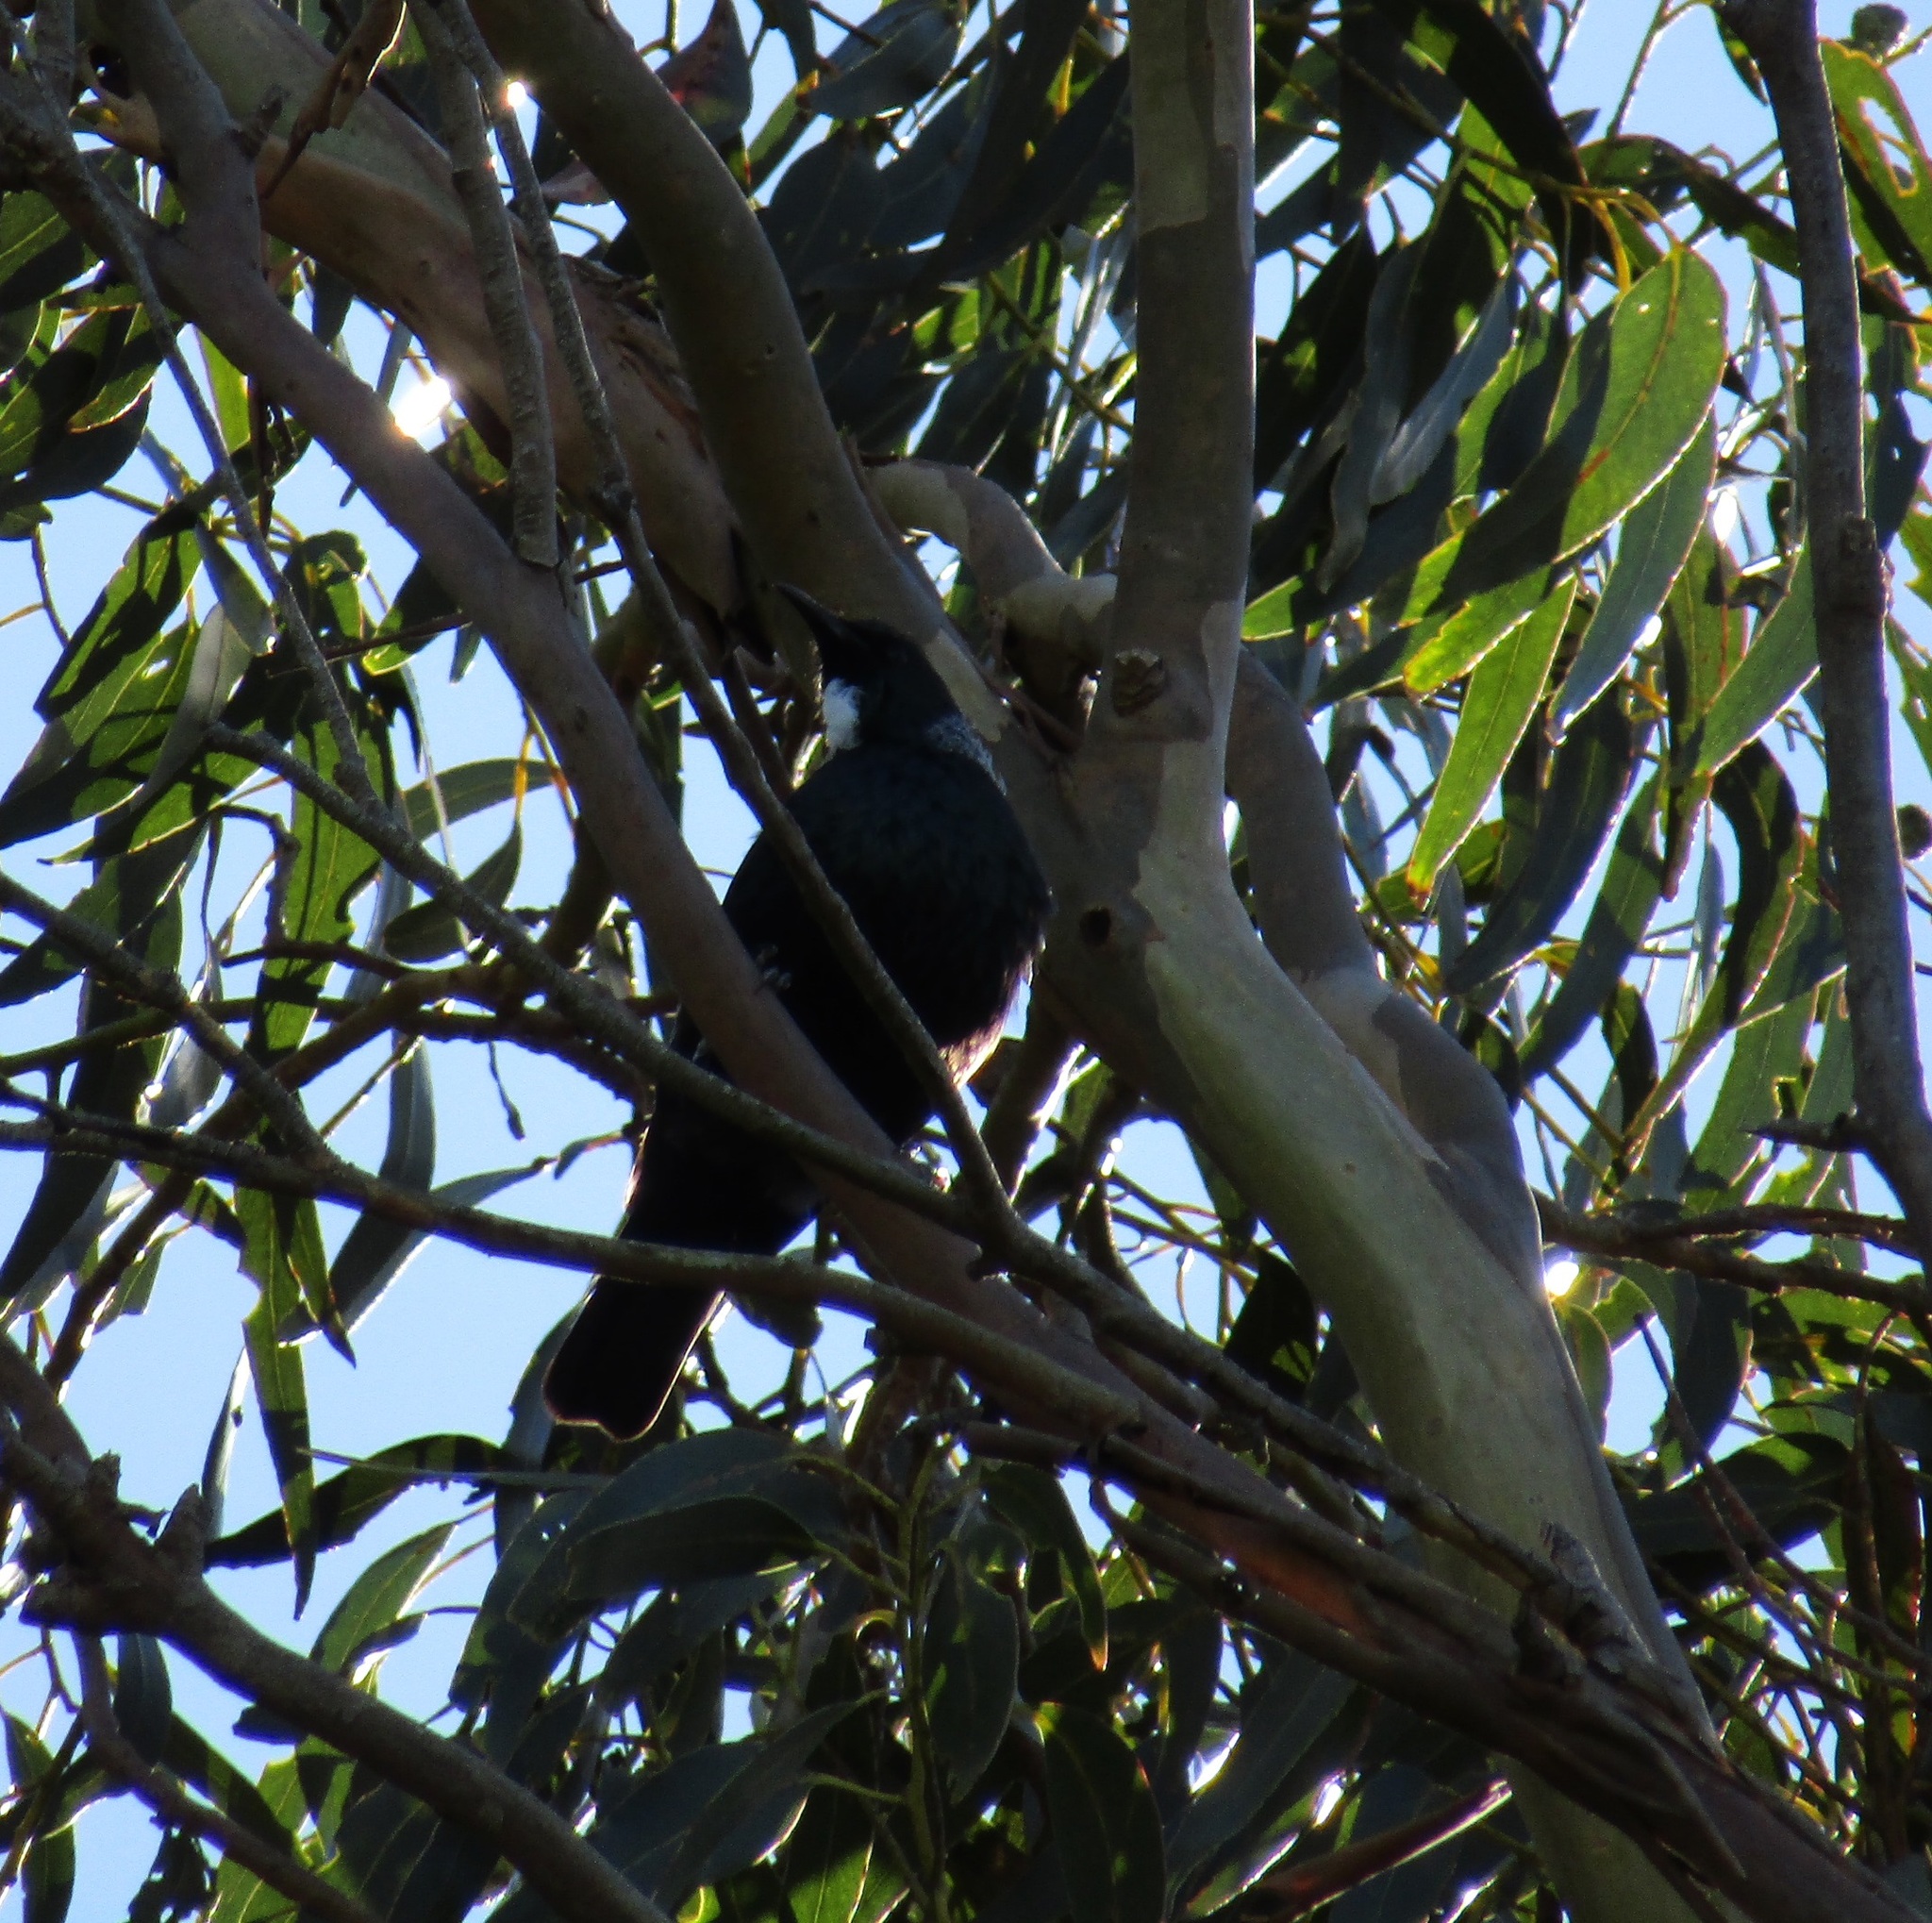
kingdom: Animalia
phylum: Chordata
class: Aves
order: Passeriformes
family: Meliphagidae
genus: Prosthemadera
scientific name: Prosthemadera novaeseelandiae
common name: Tui
